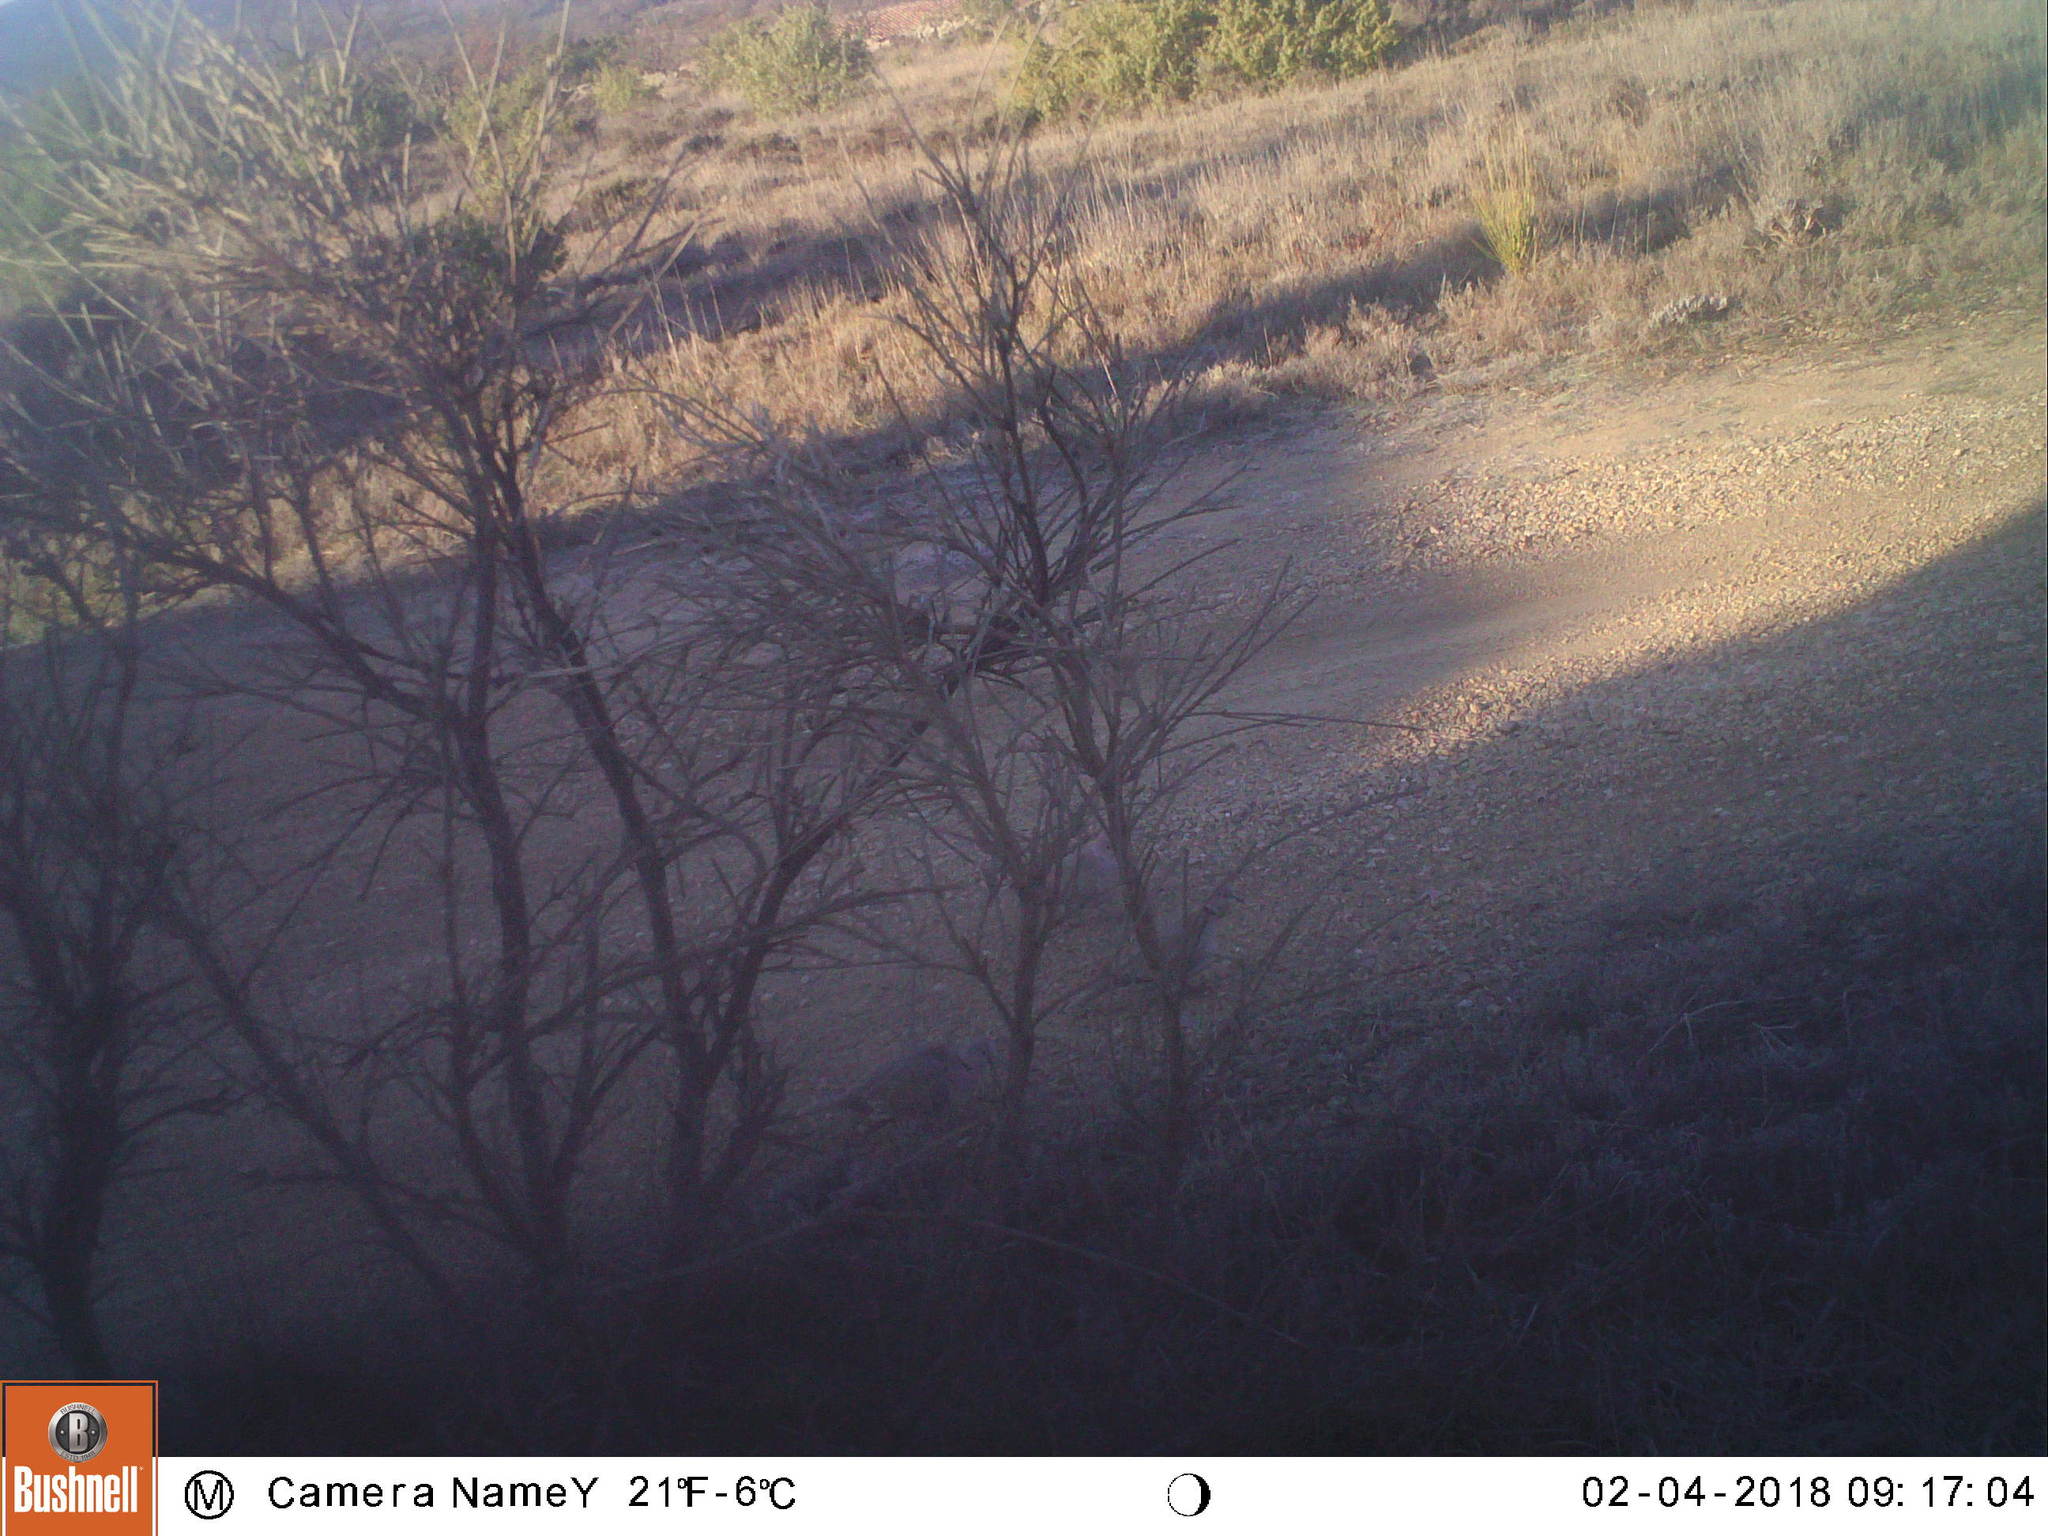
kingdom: Animalia
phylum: Chordata
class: Aves
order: Columbiformes
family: Columbidae
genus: Streptopelia
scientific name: Streptopelia decaocto
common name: Eurasian collared dove
